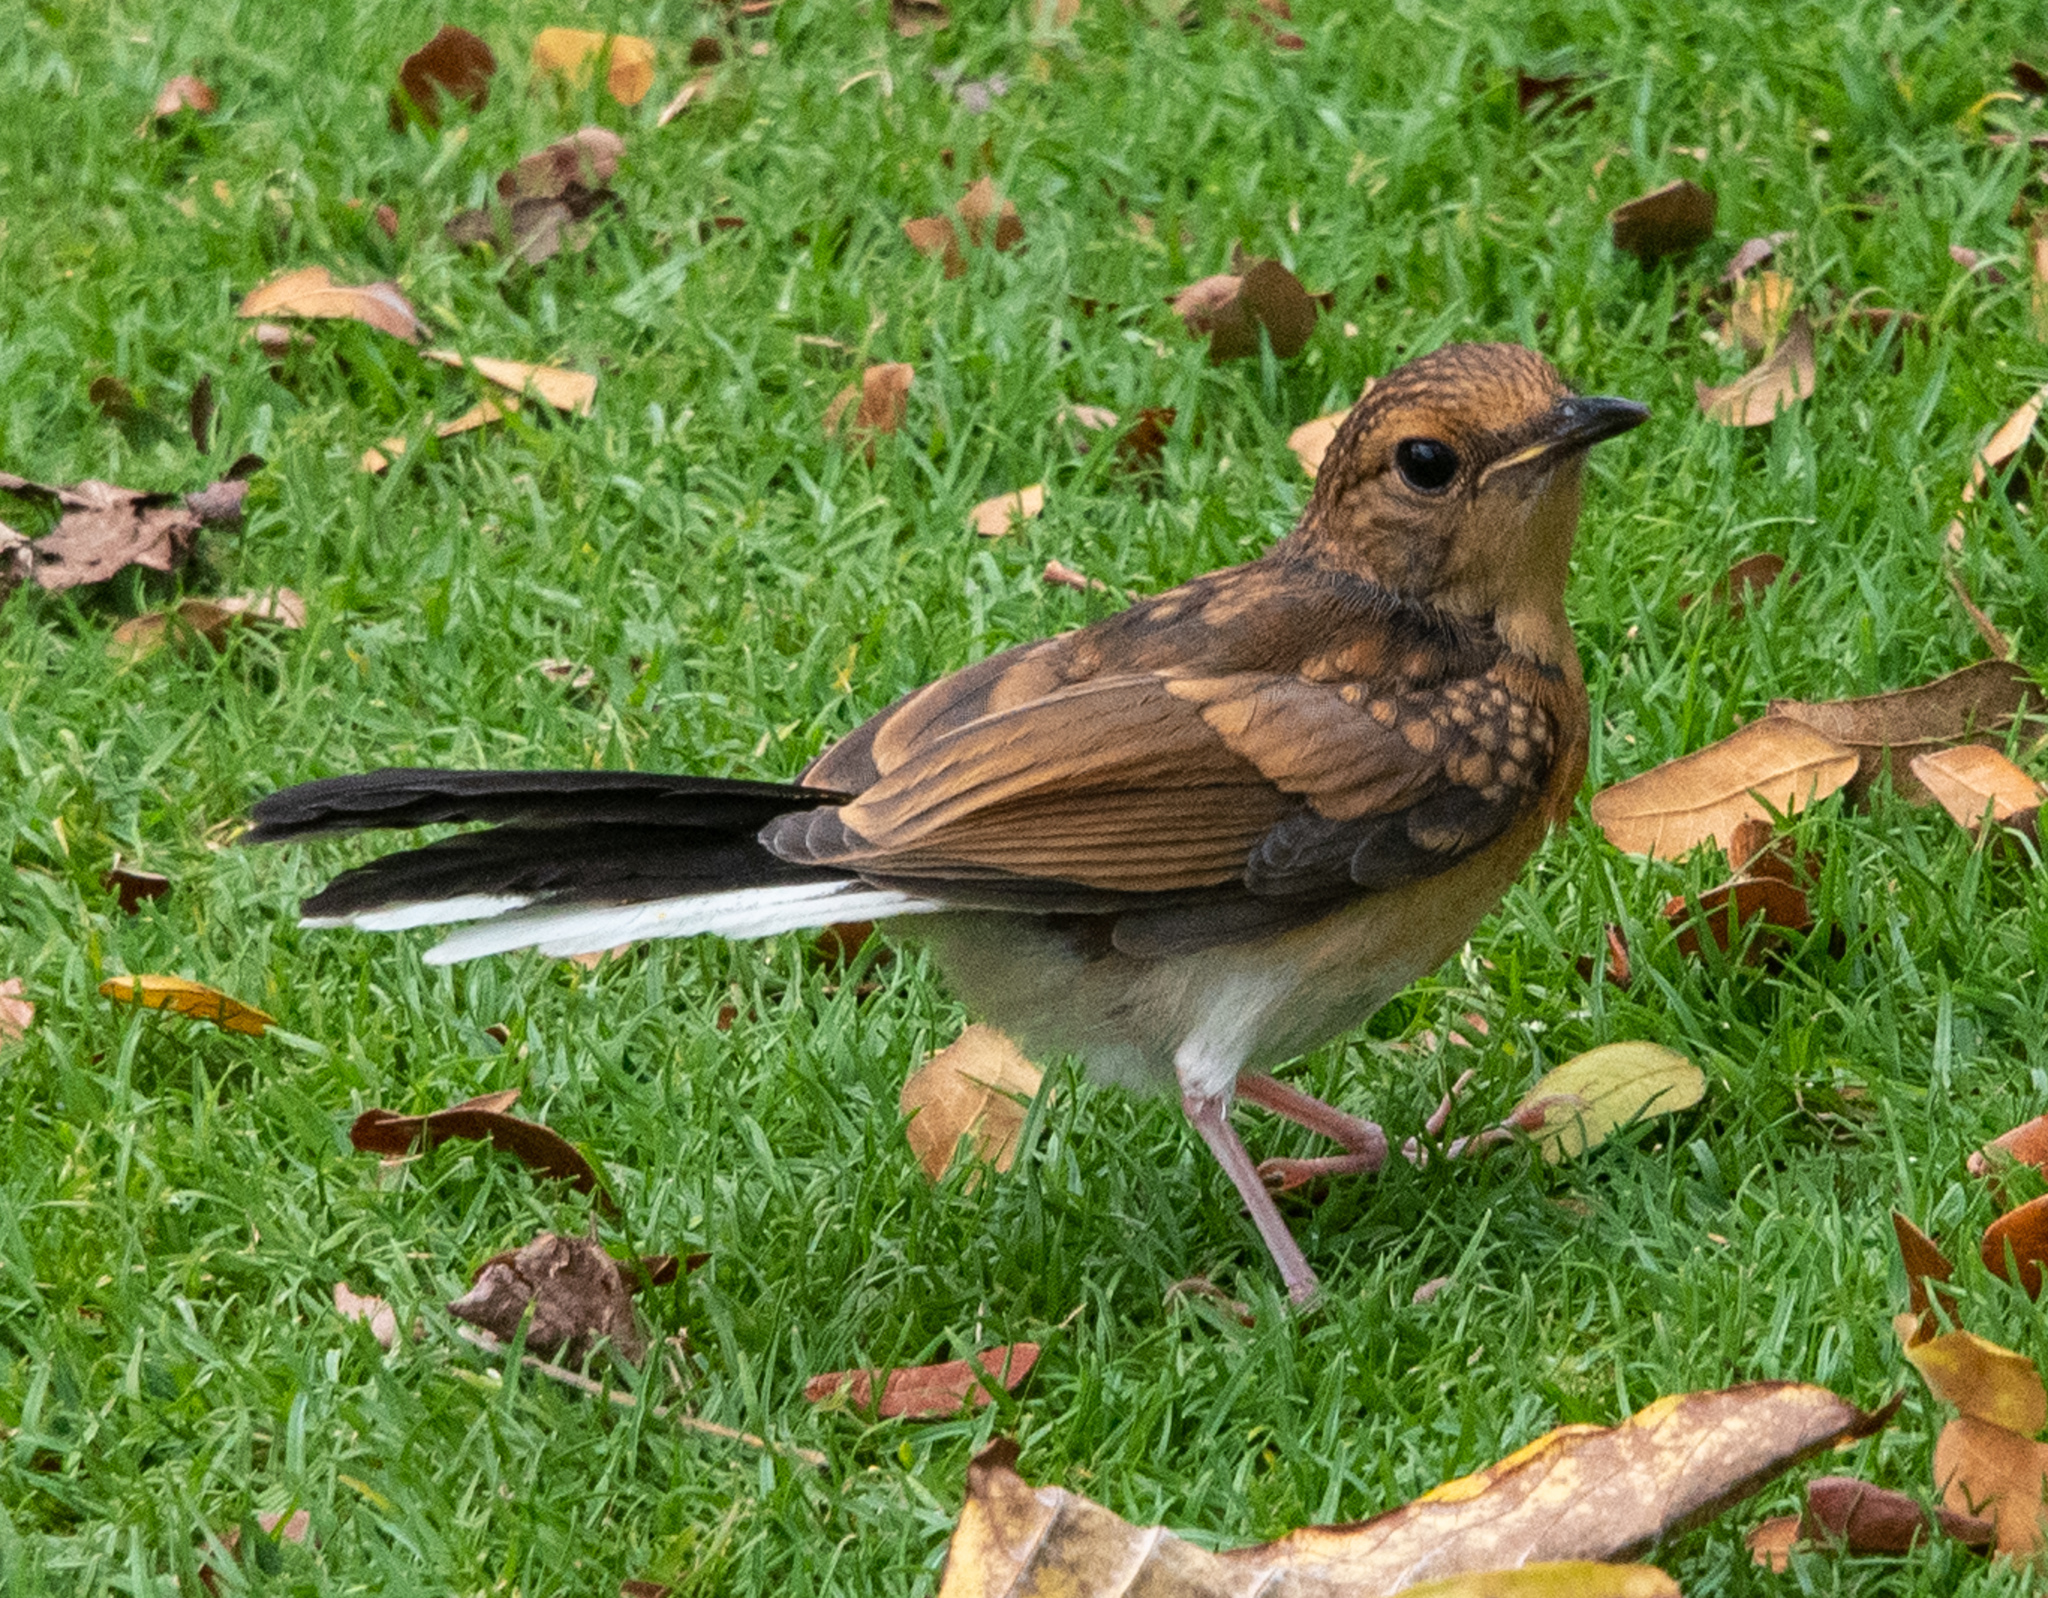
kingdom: Animalia
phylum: Chordata
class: Aves
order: Passeriformes
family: Muscicapidae
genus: Copsychus
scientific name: Copsychus malabaricus
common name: White-rumped shama
